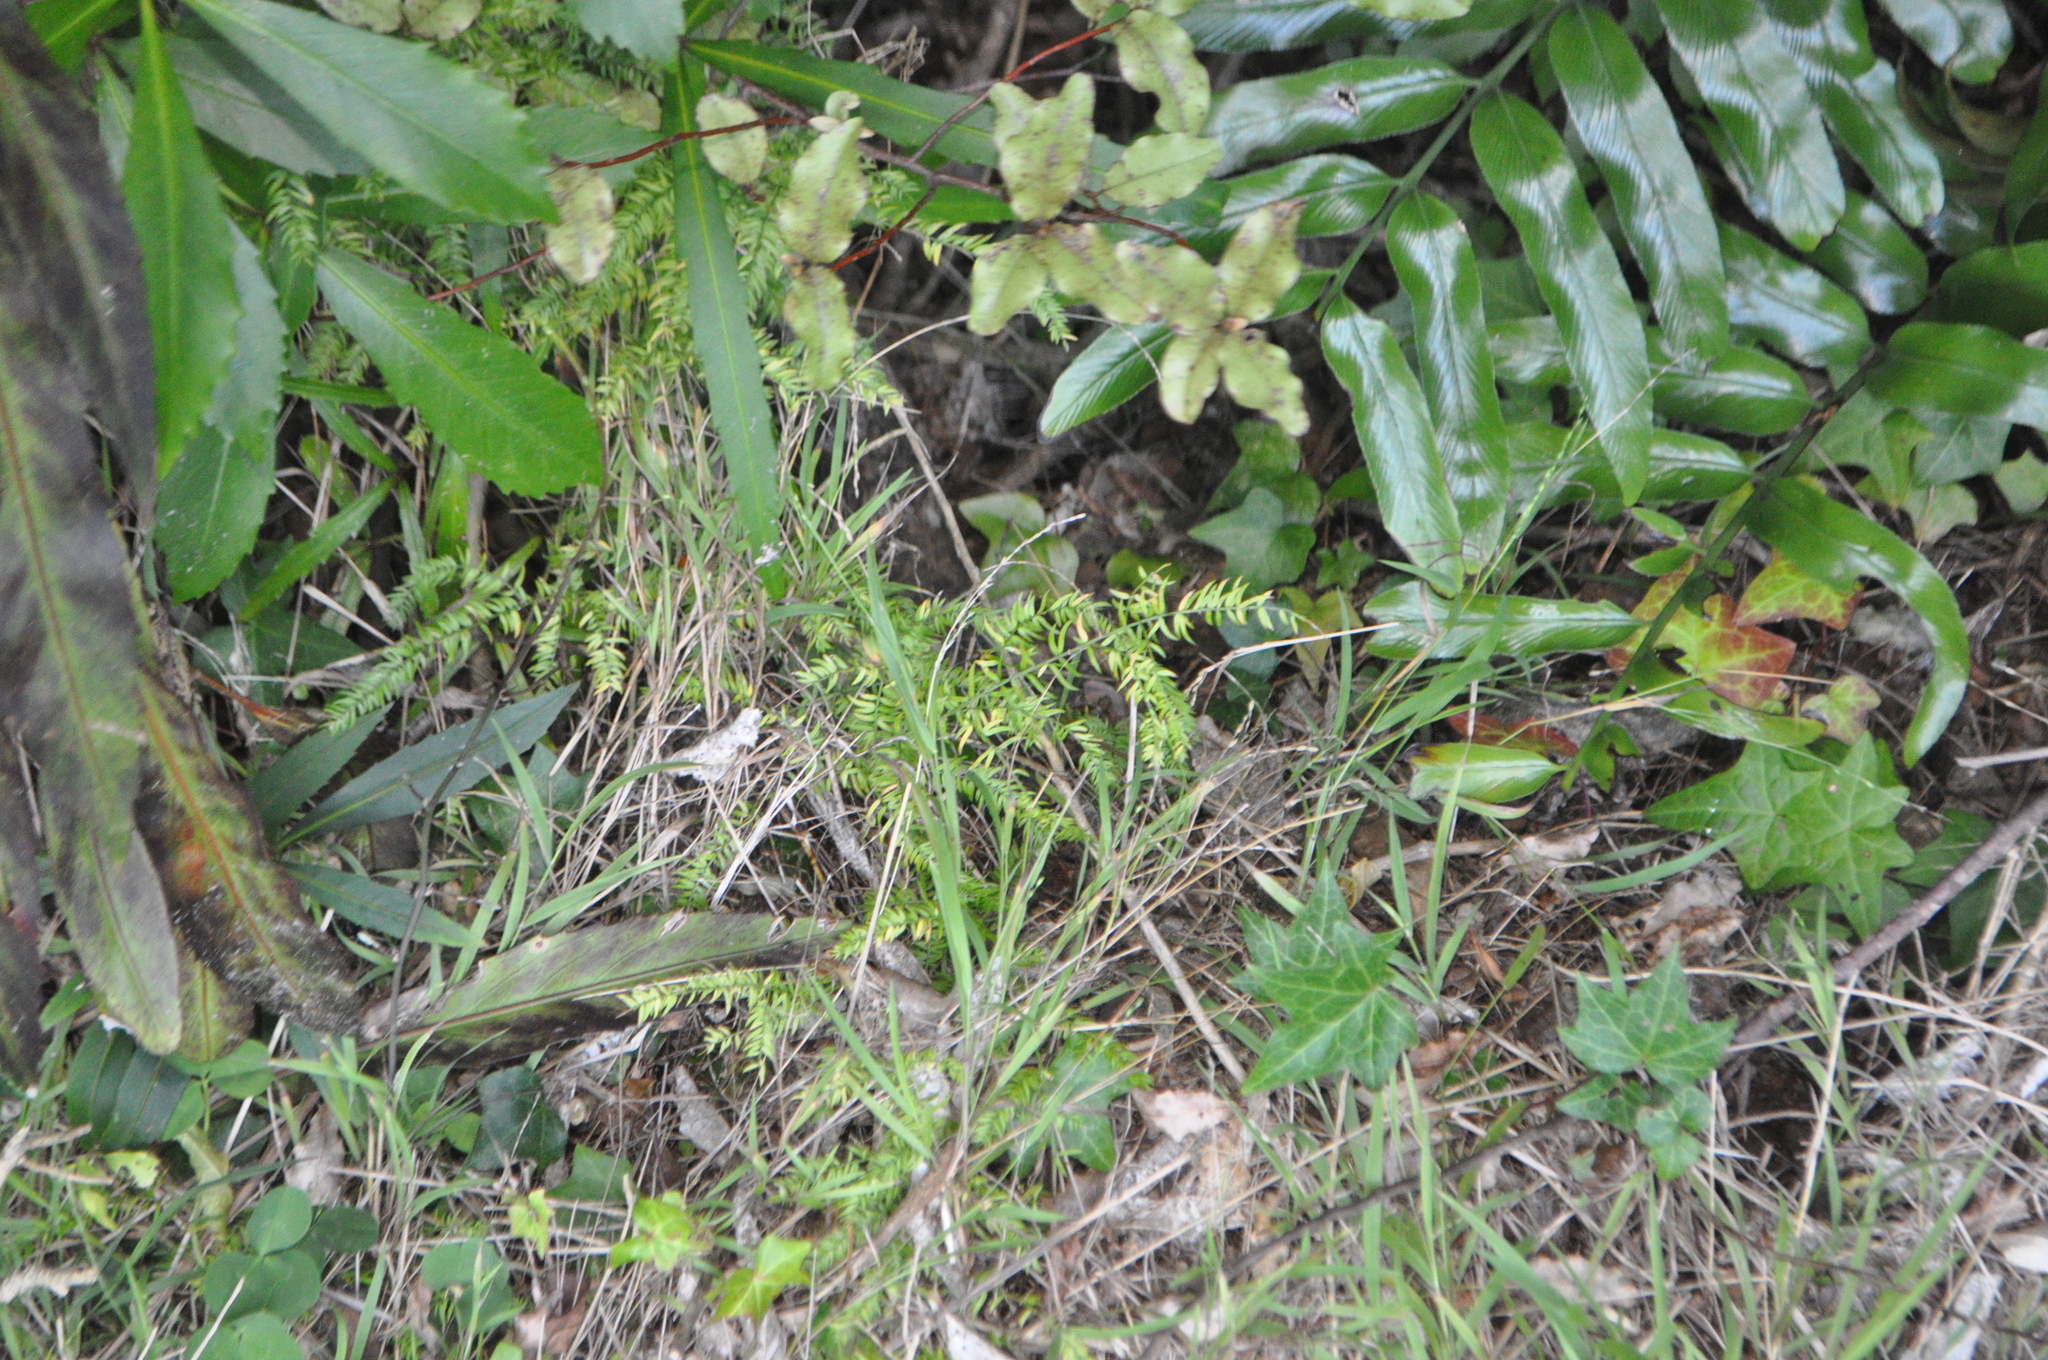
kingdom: Plantae
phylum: Tracheophyta
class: Liliopsida
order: Asparagales
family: Asparagaceae
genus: Asparagus
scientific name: Asparagus scandens
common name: Asparagus-fern
